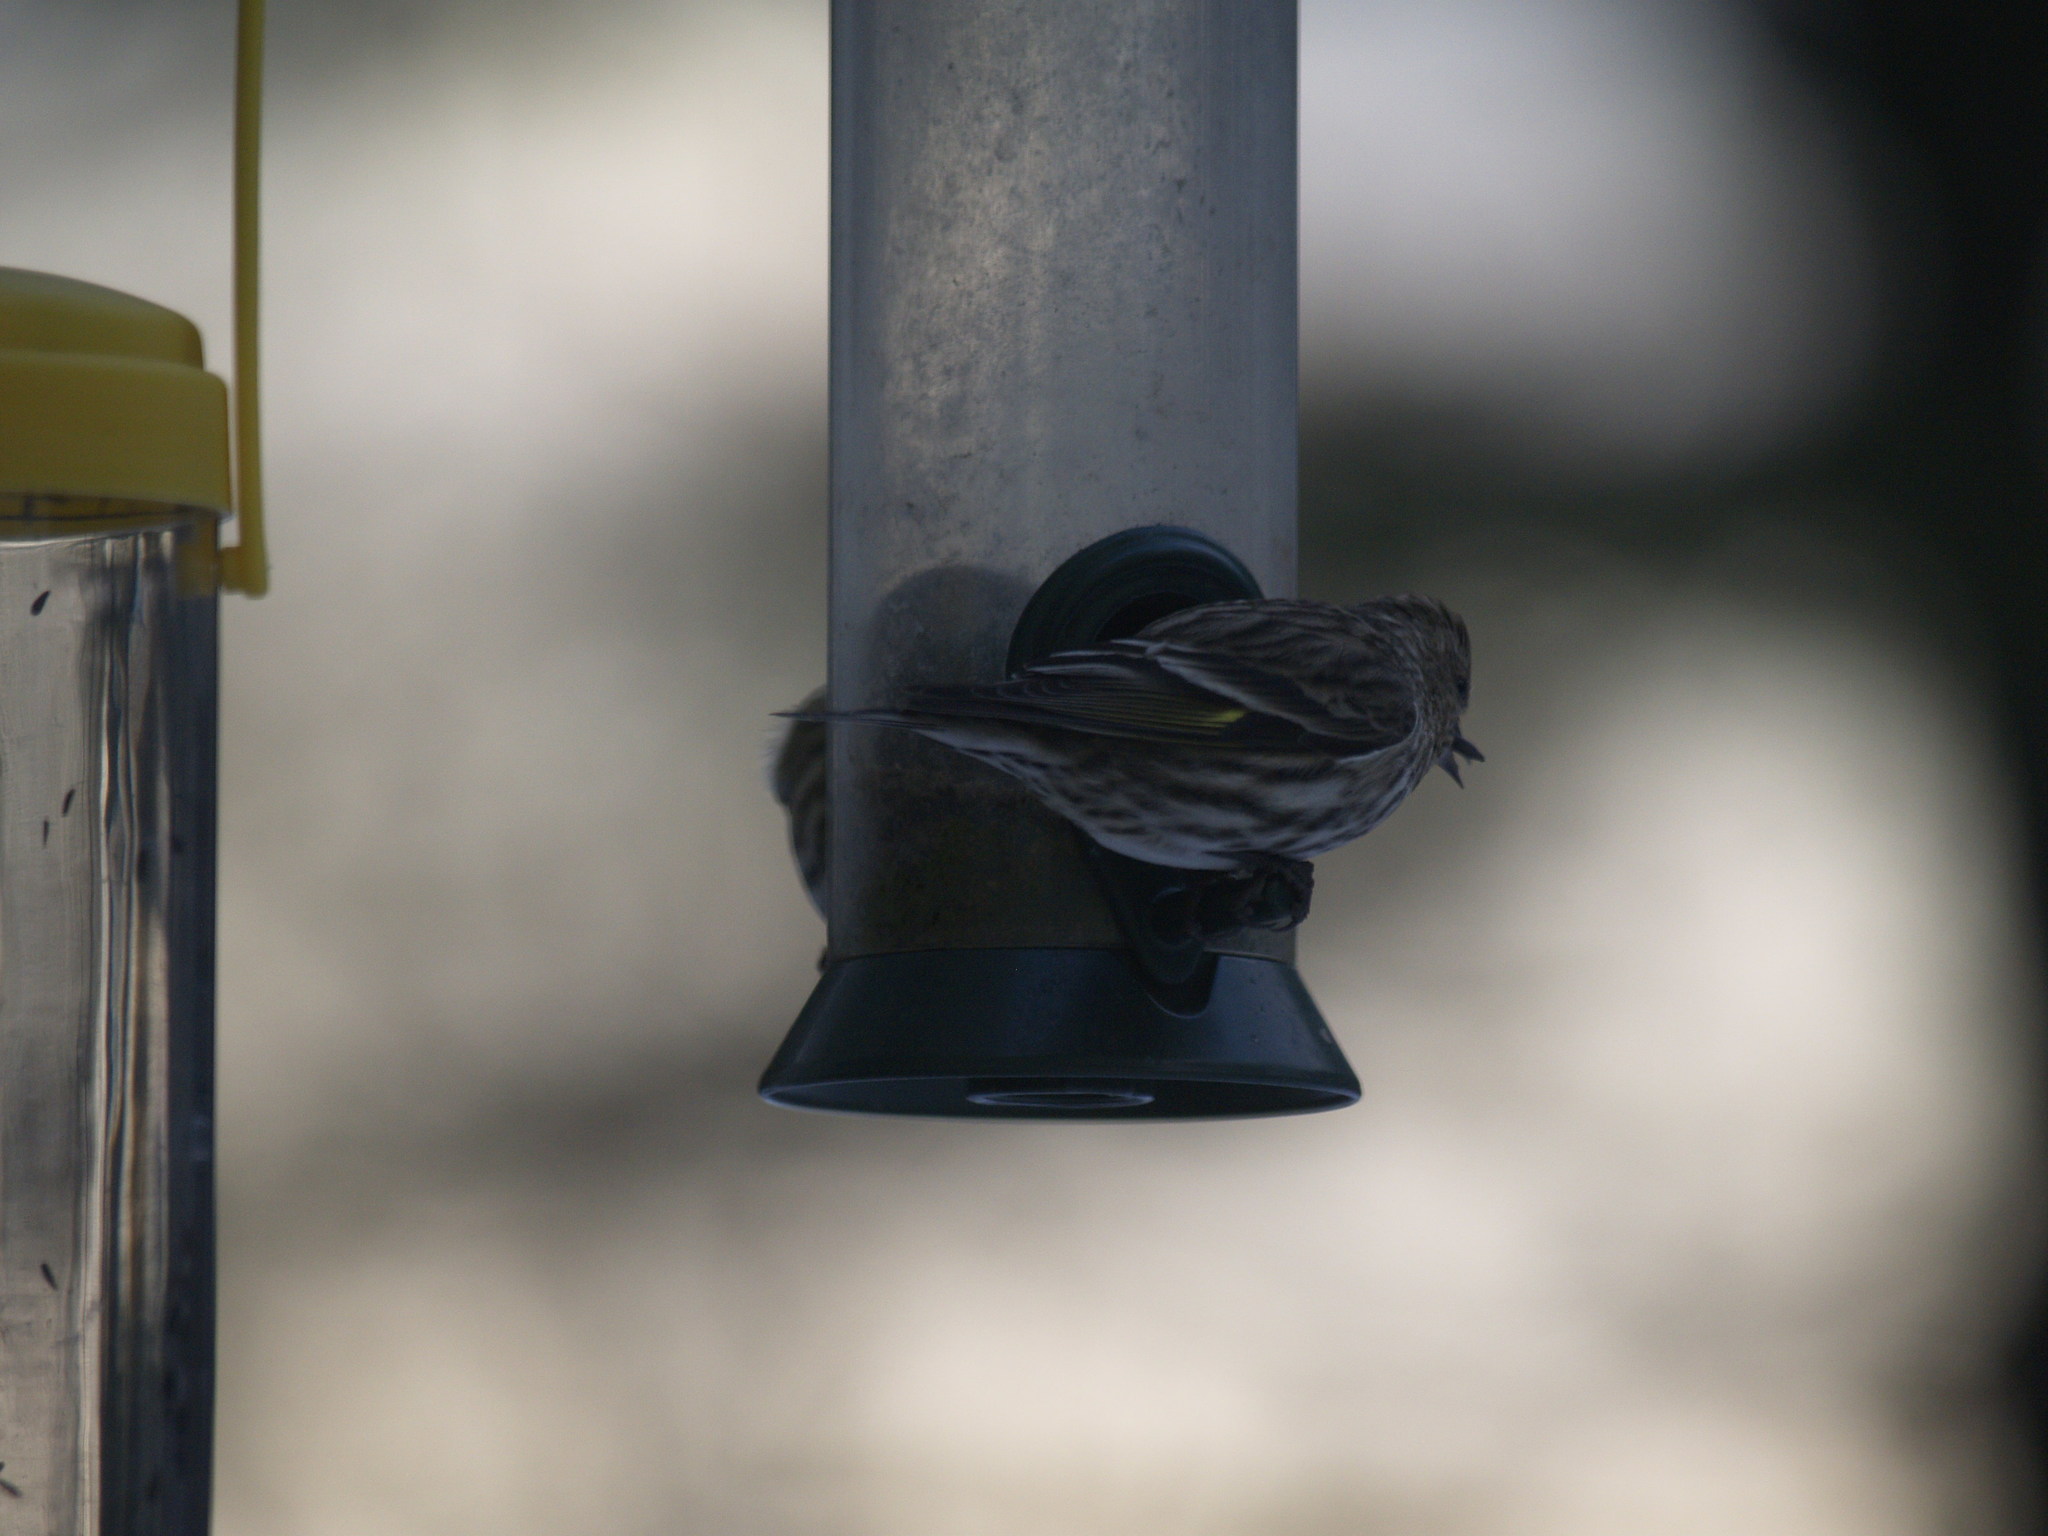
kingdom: Animalia
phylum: Chordata
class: Aves
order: Passeriformes
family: Fringillidae
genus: Spinus
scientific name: Spinus pinus
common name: Pine siskin
